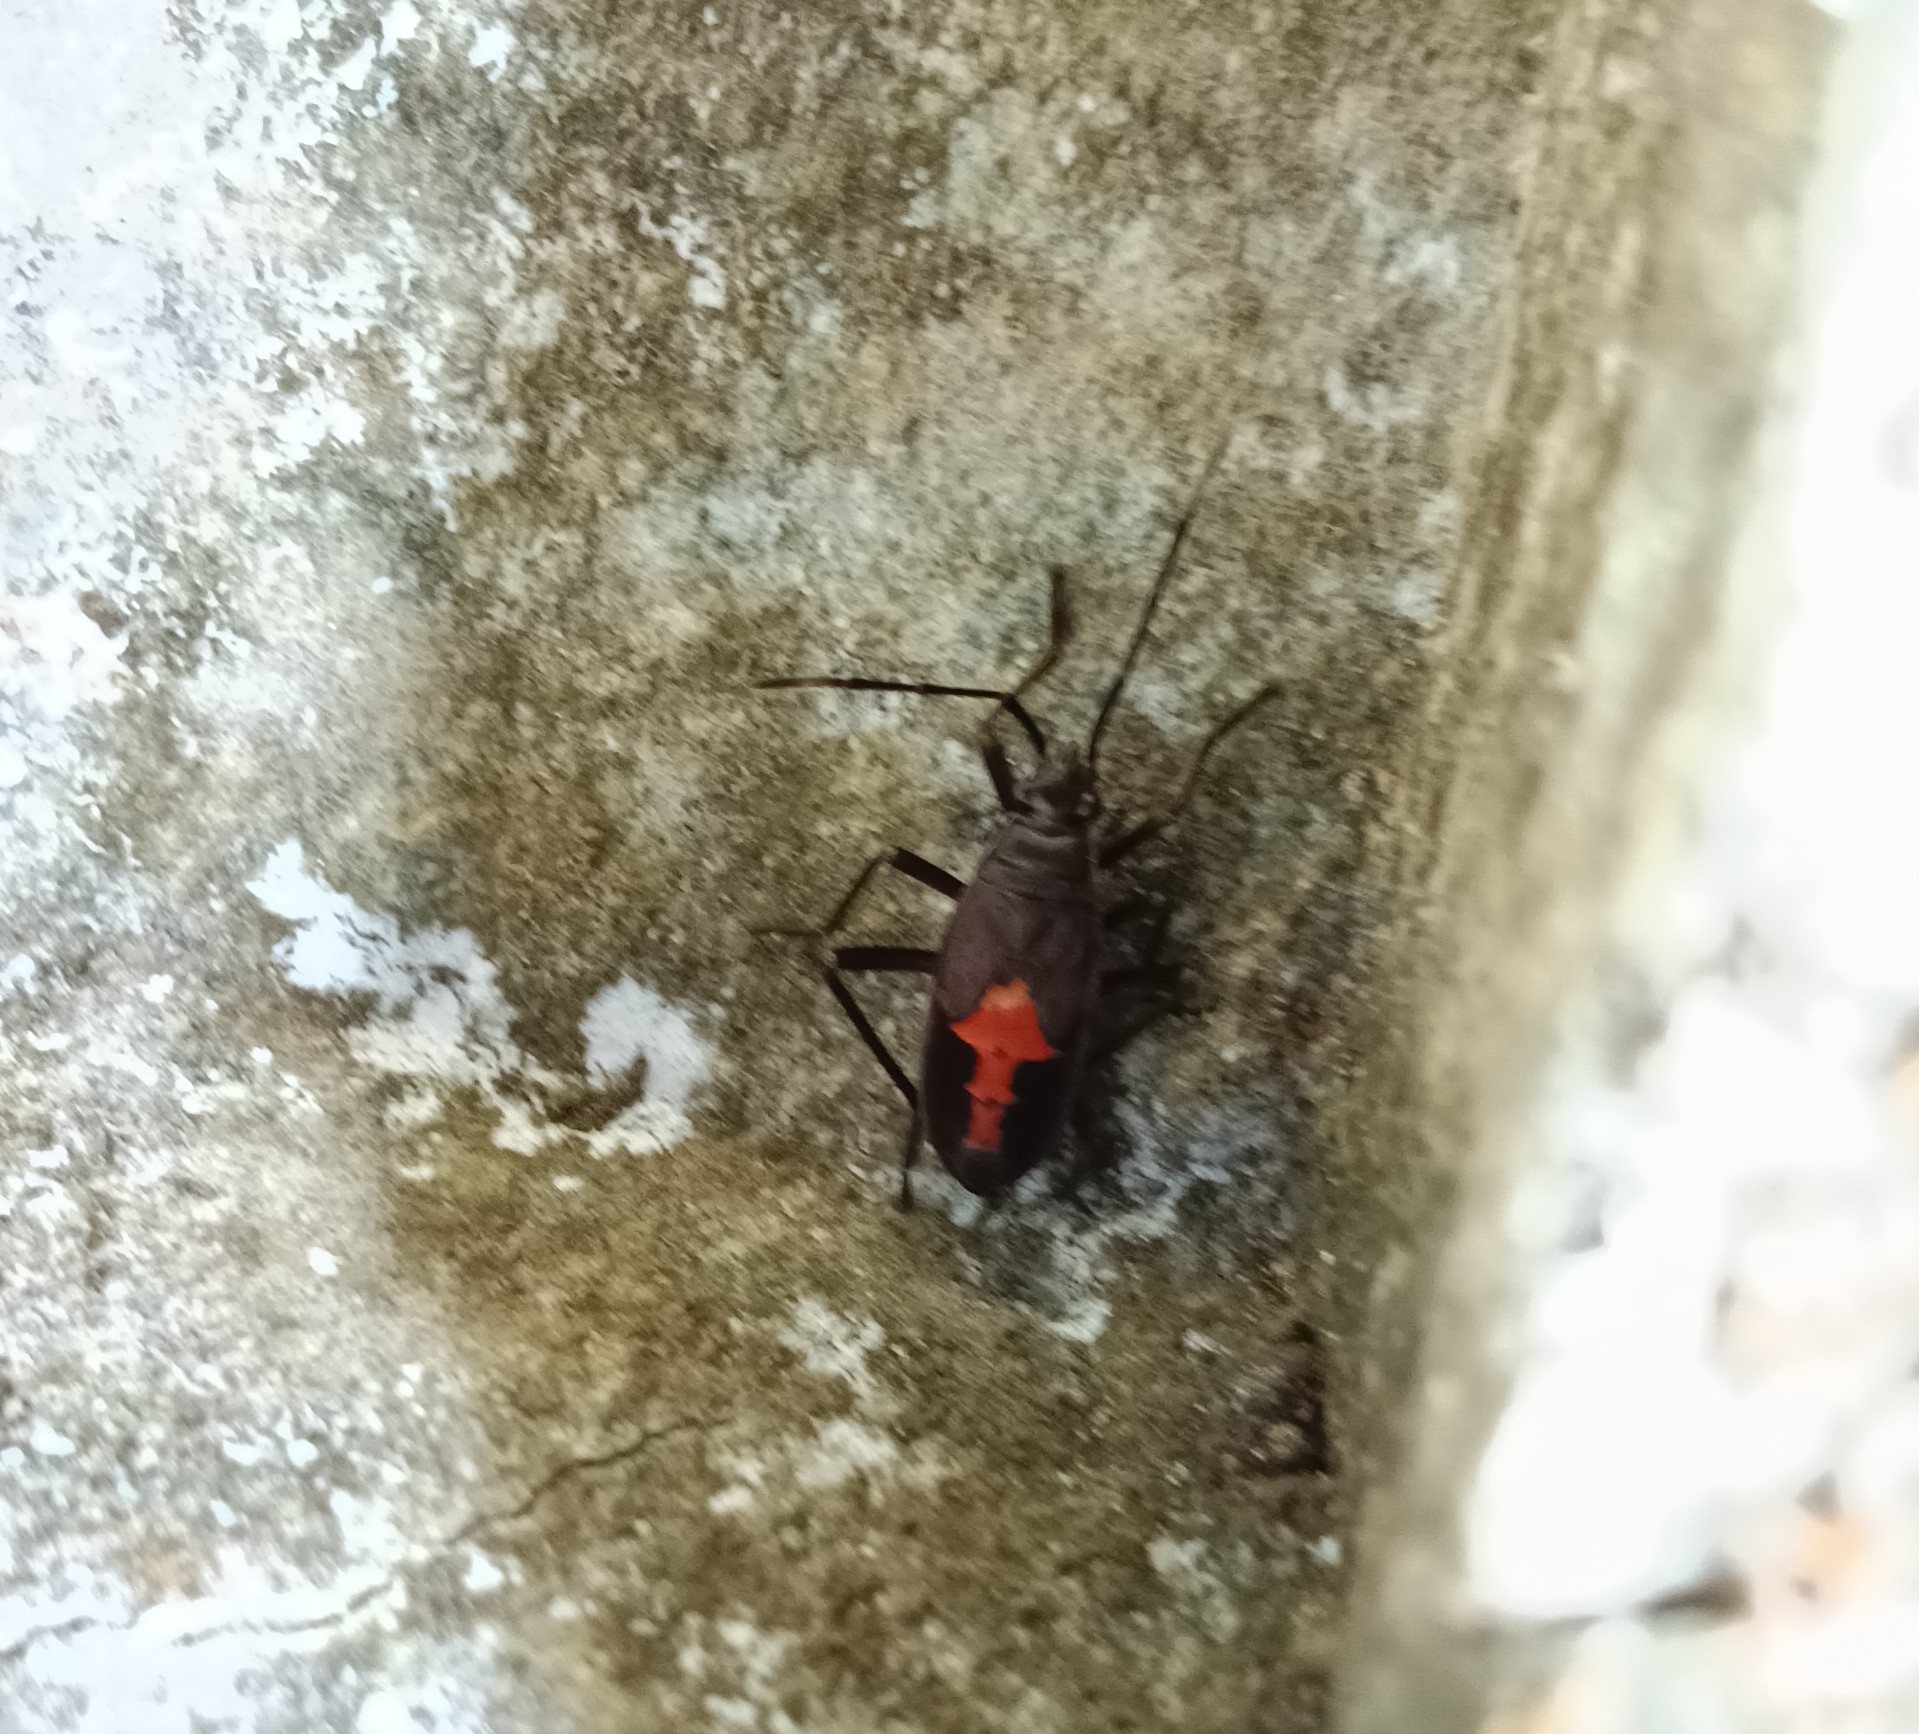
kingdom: Animalia
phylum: Arthropoda
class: Insecta
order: Hemiptera
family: Pyrrhocoridae
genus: Melamphaus
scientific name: Melamphaus
